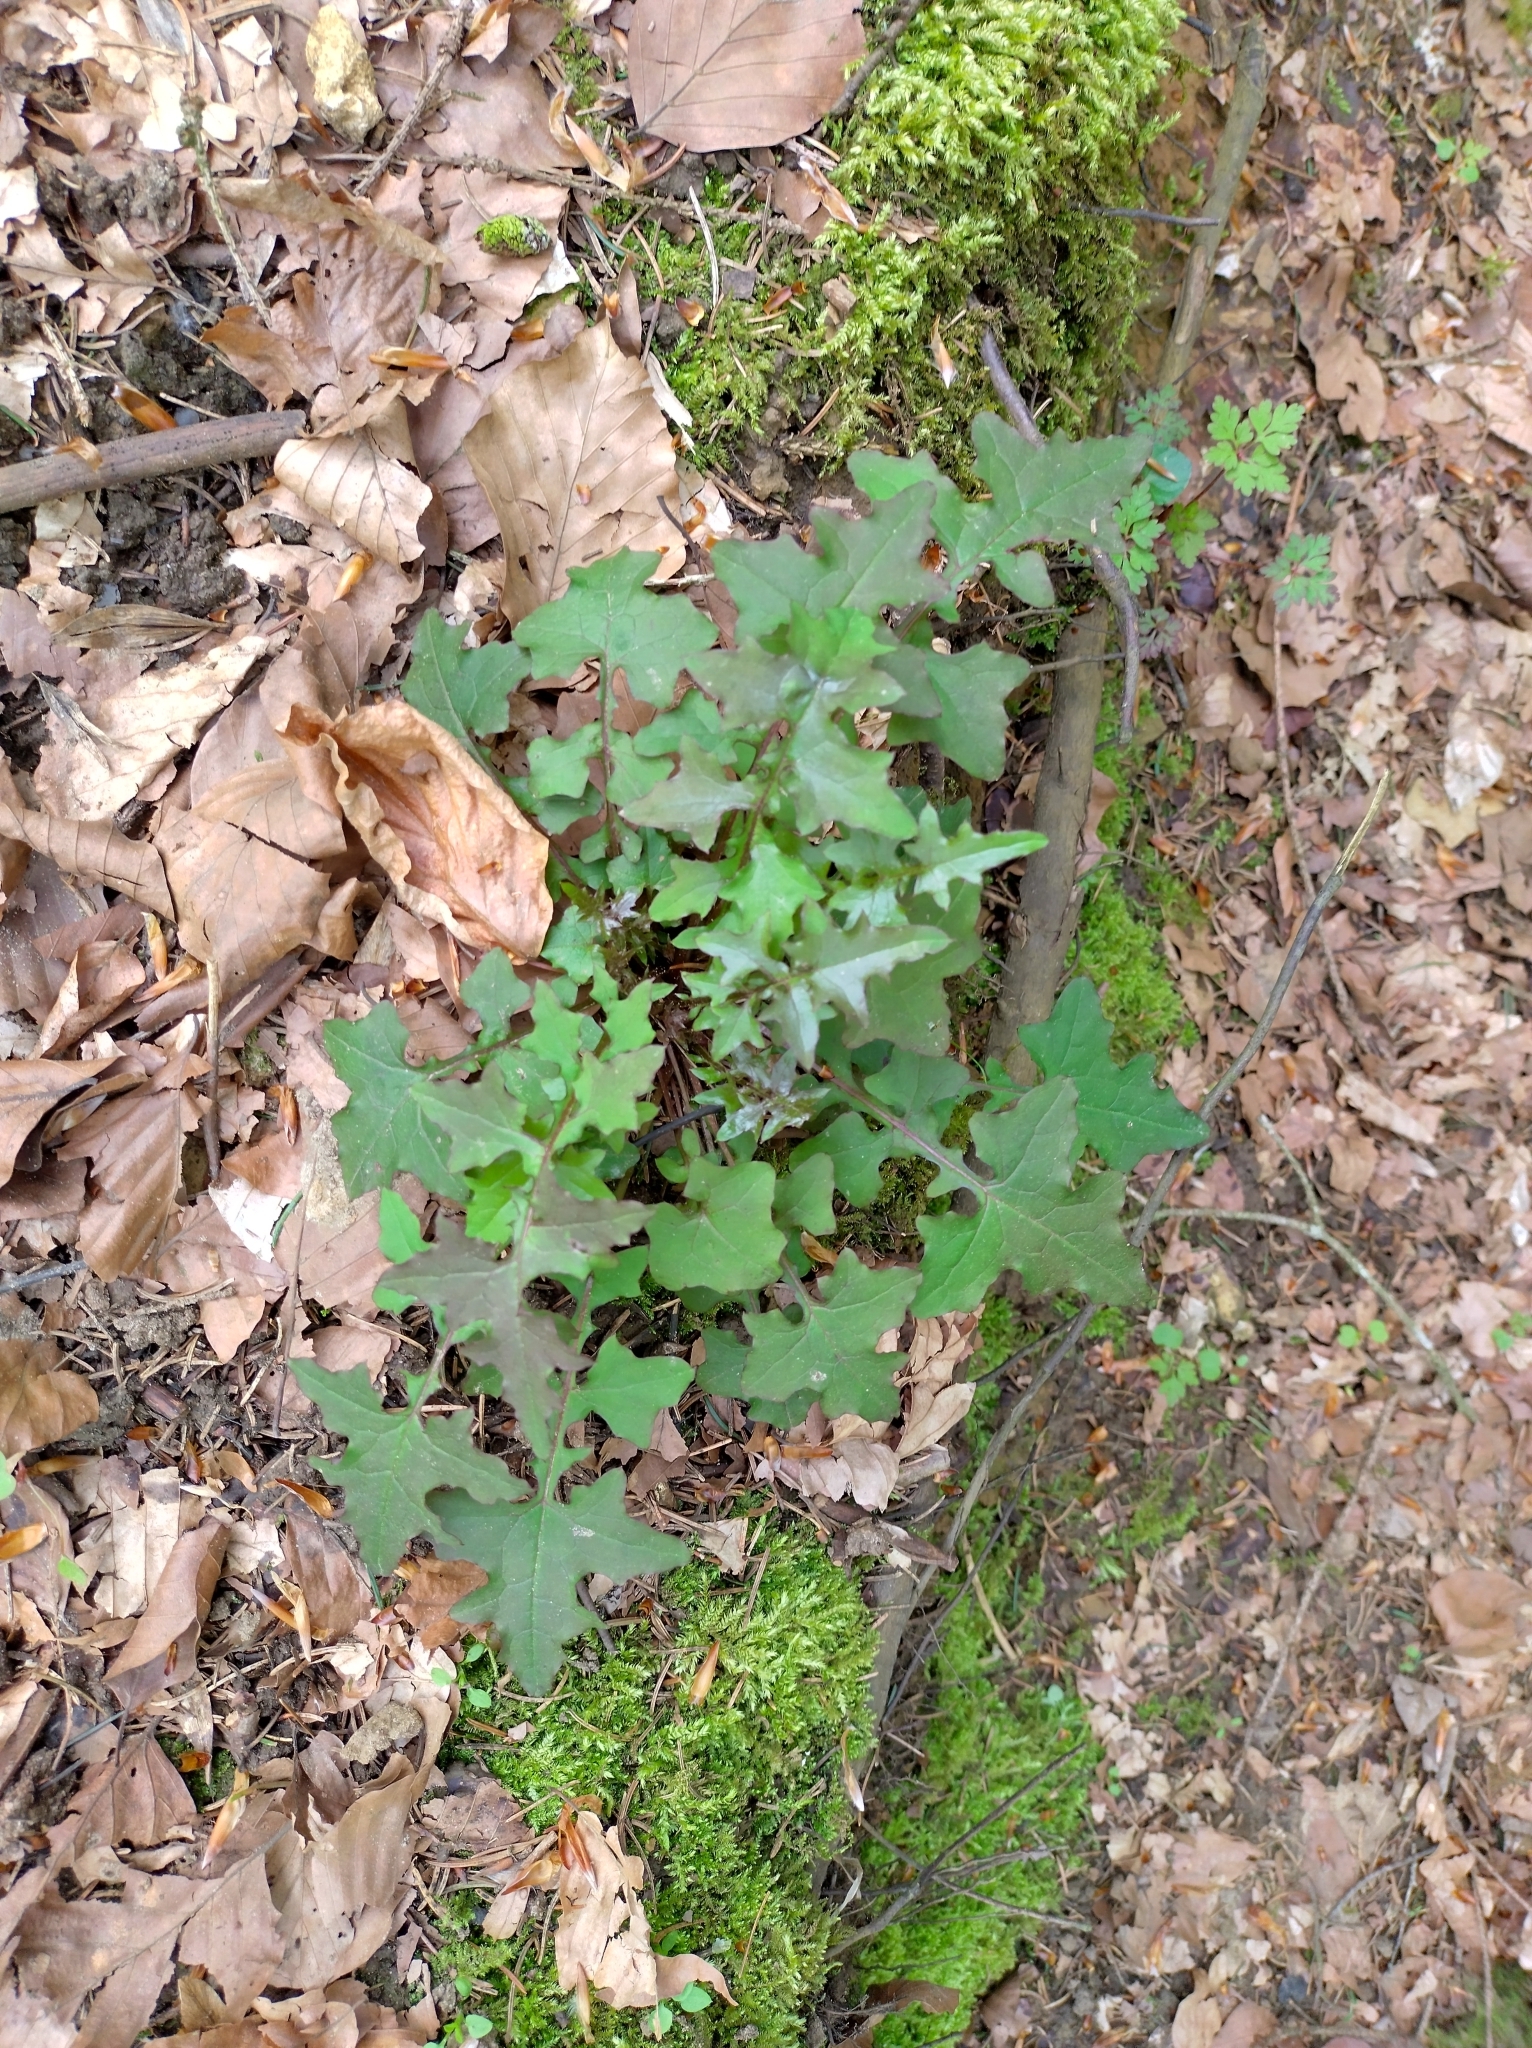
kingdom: Plantae
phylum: Tracheophyta
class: Magnoliopsida
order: Asterales
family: Asteraceae
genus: Mycelis
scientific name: Mycelis muralis
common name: Wall lettuce
